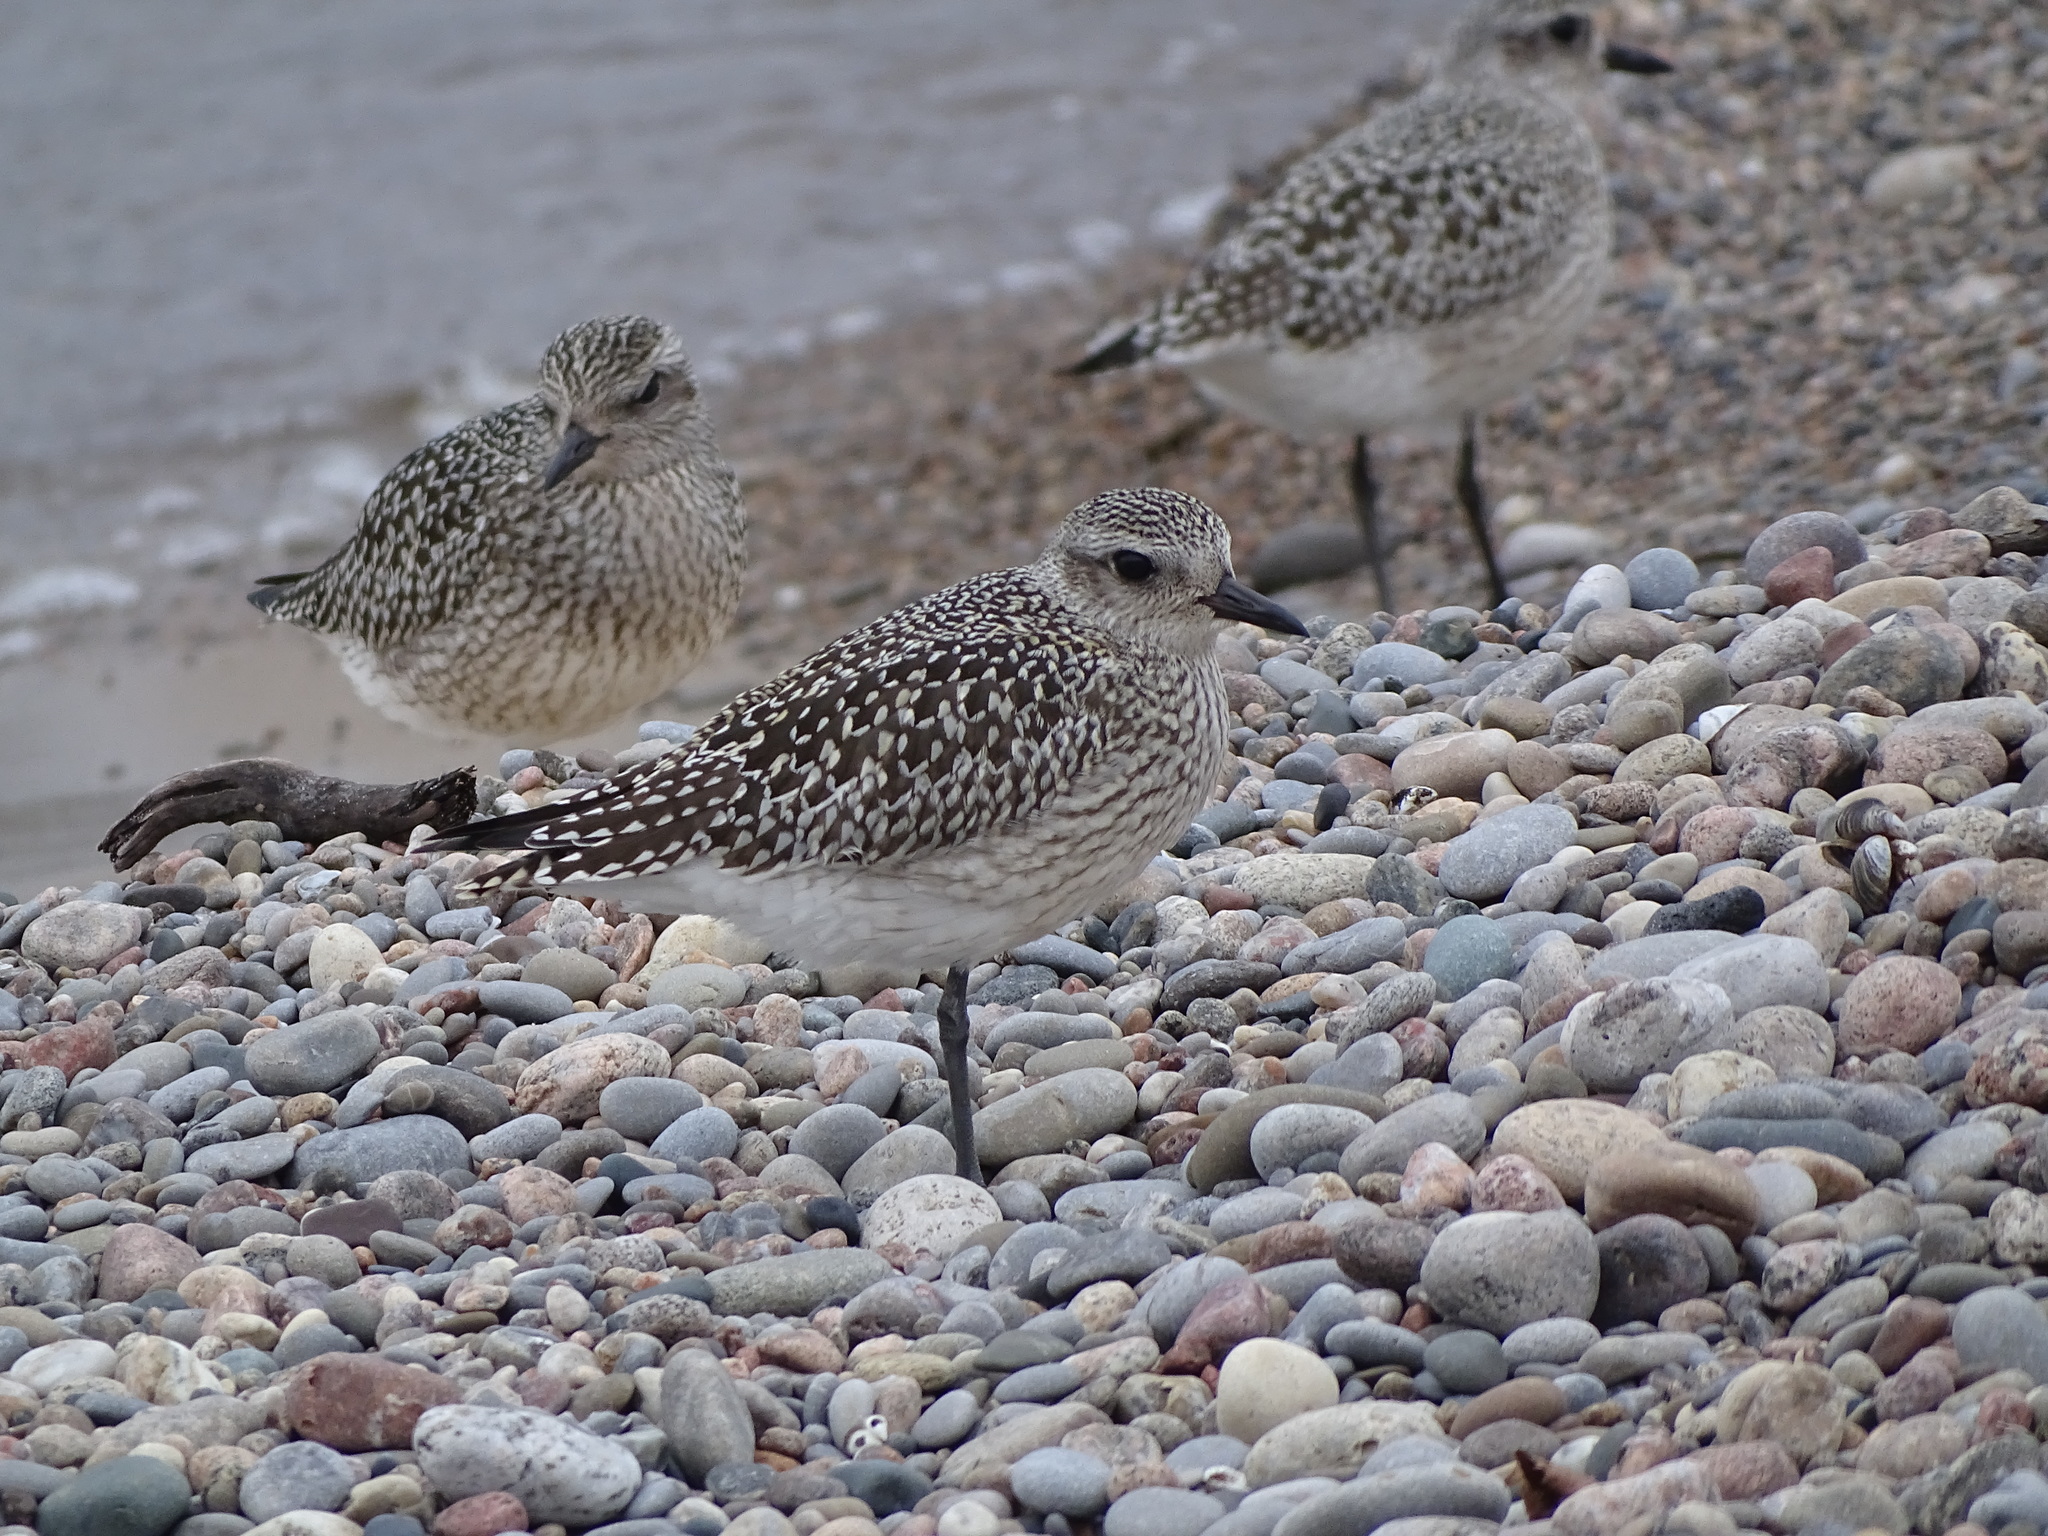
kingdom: Animalia
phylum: Chordata
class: Aves
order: Charadriiformes
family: Charadriidae
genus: Pluvialis
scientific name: Pluvialis squatarola
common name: Grey plover
